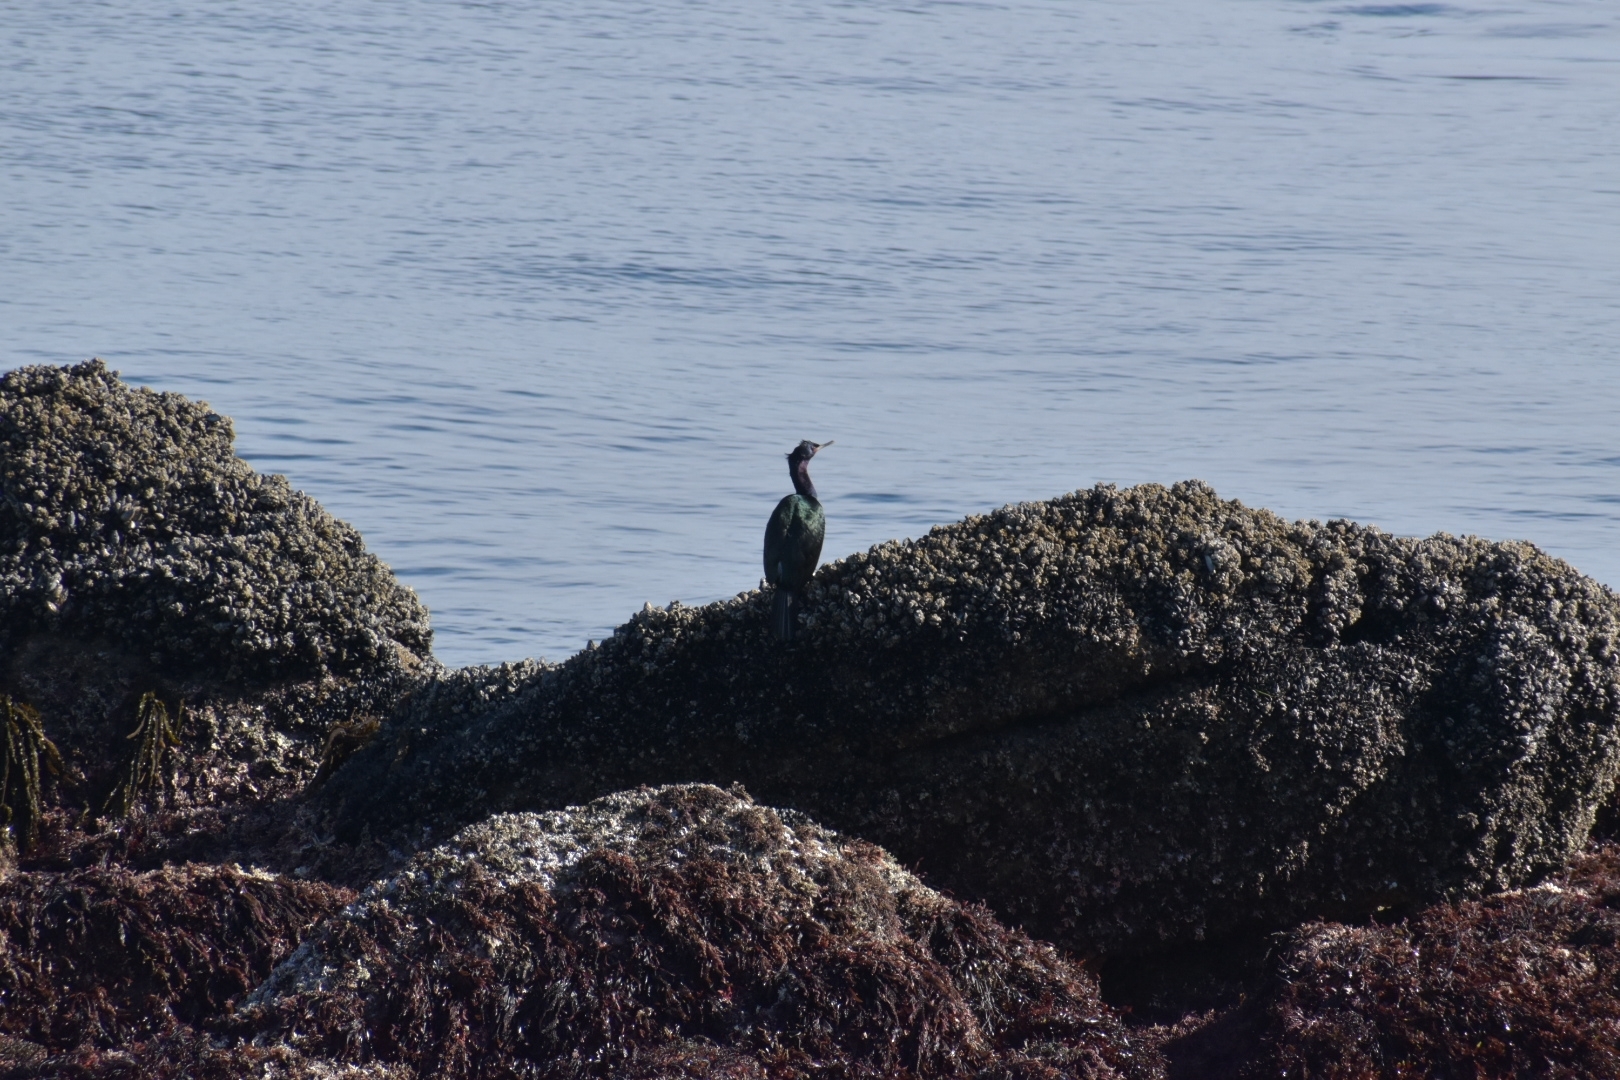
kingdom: Animalia
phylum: Chordata
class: Aves
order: Suliformes
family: Phalacrocoracidae
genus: Phalacrocorax
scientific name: Phalacrocorax pelagicus
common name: Pelagic cormorant
